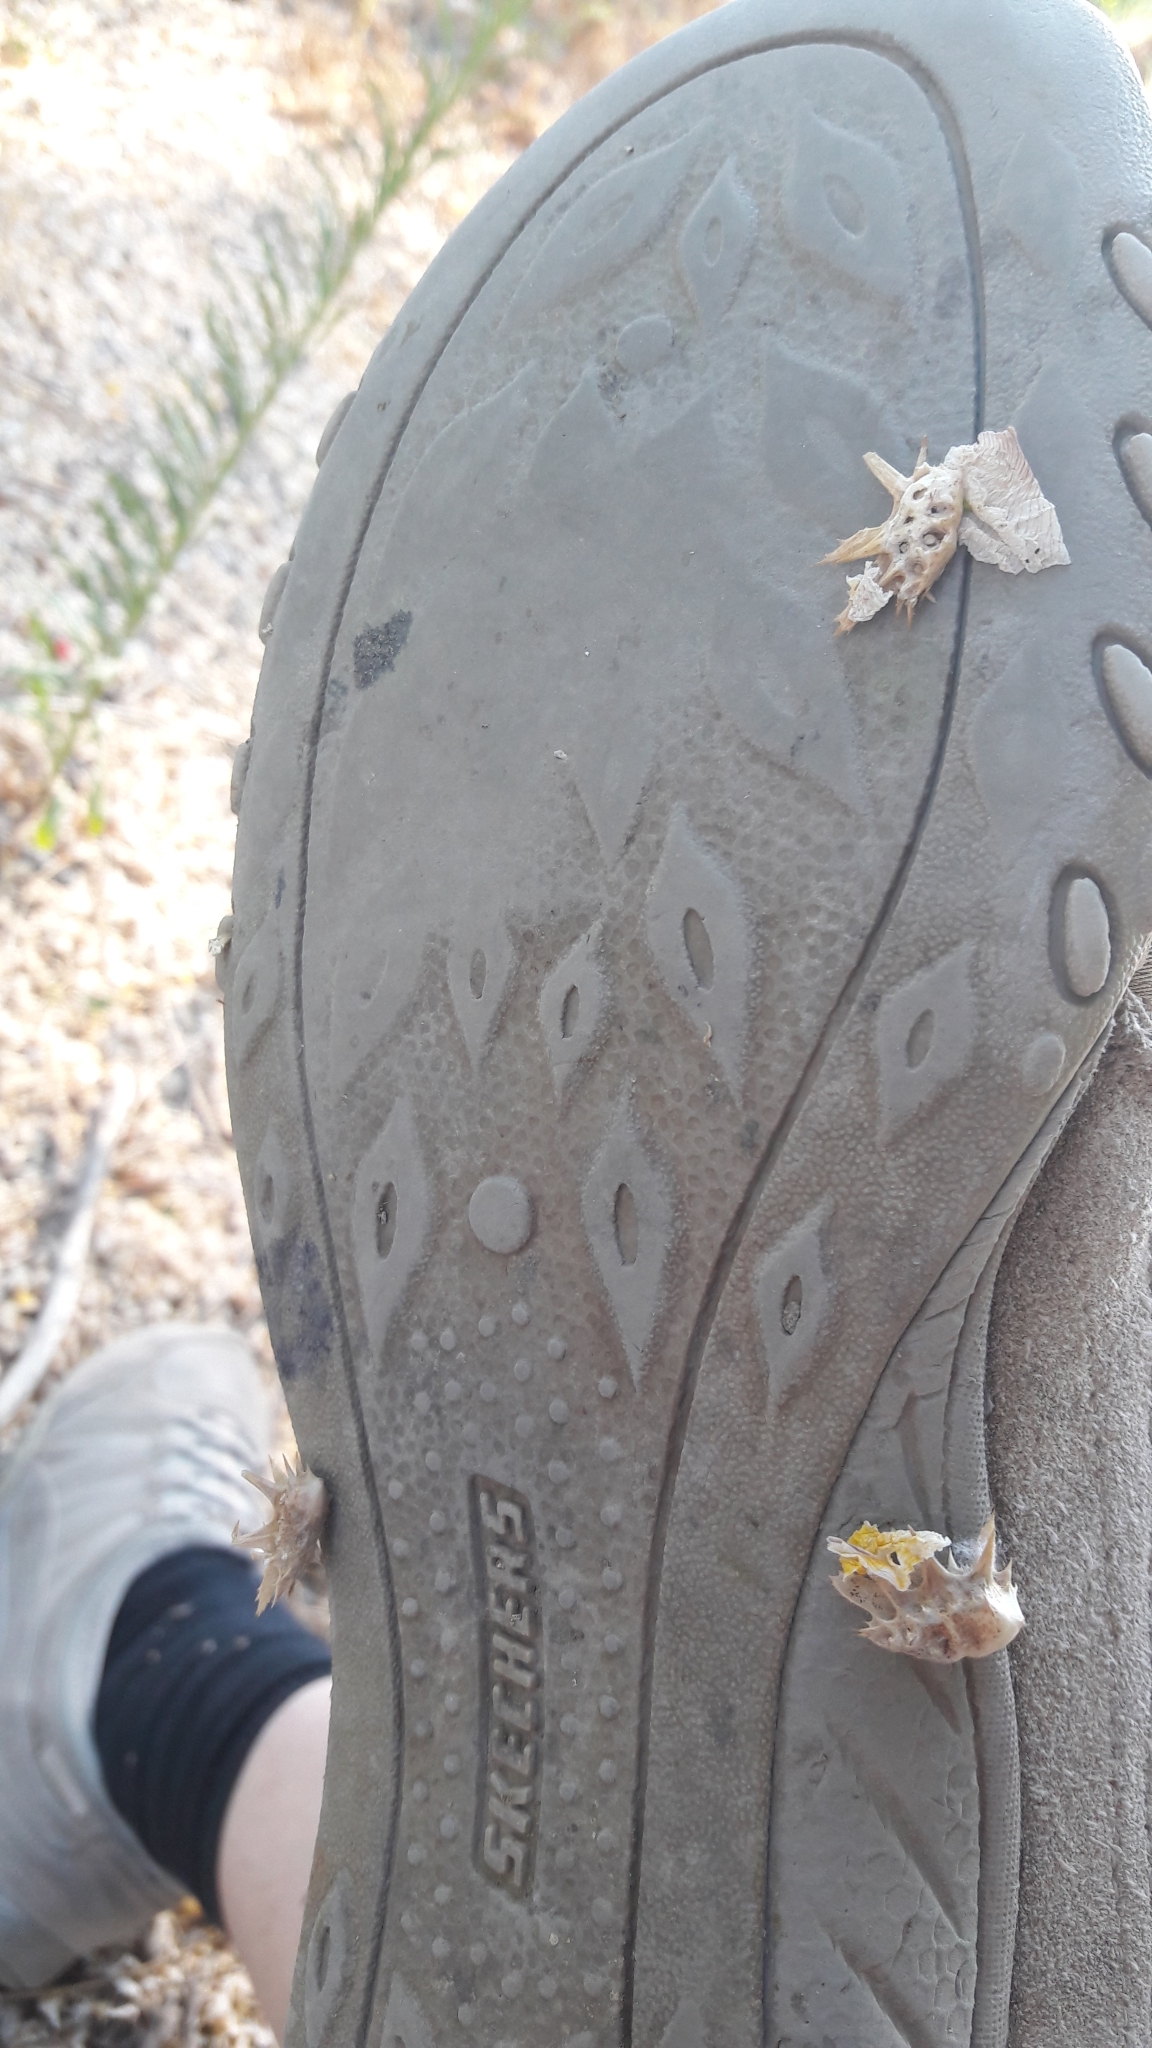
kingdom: Plantae
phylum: Tracheophyta
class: Magnoliopsida
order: Zygophyllales
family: Zygophyllaceae
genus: Tribulus
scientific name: Tribulus terrestris
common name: Puncturevine
